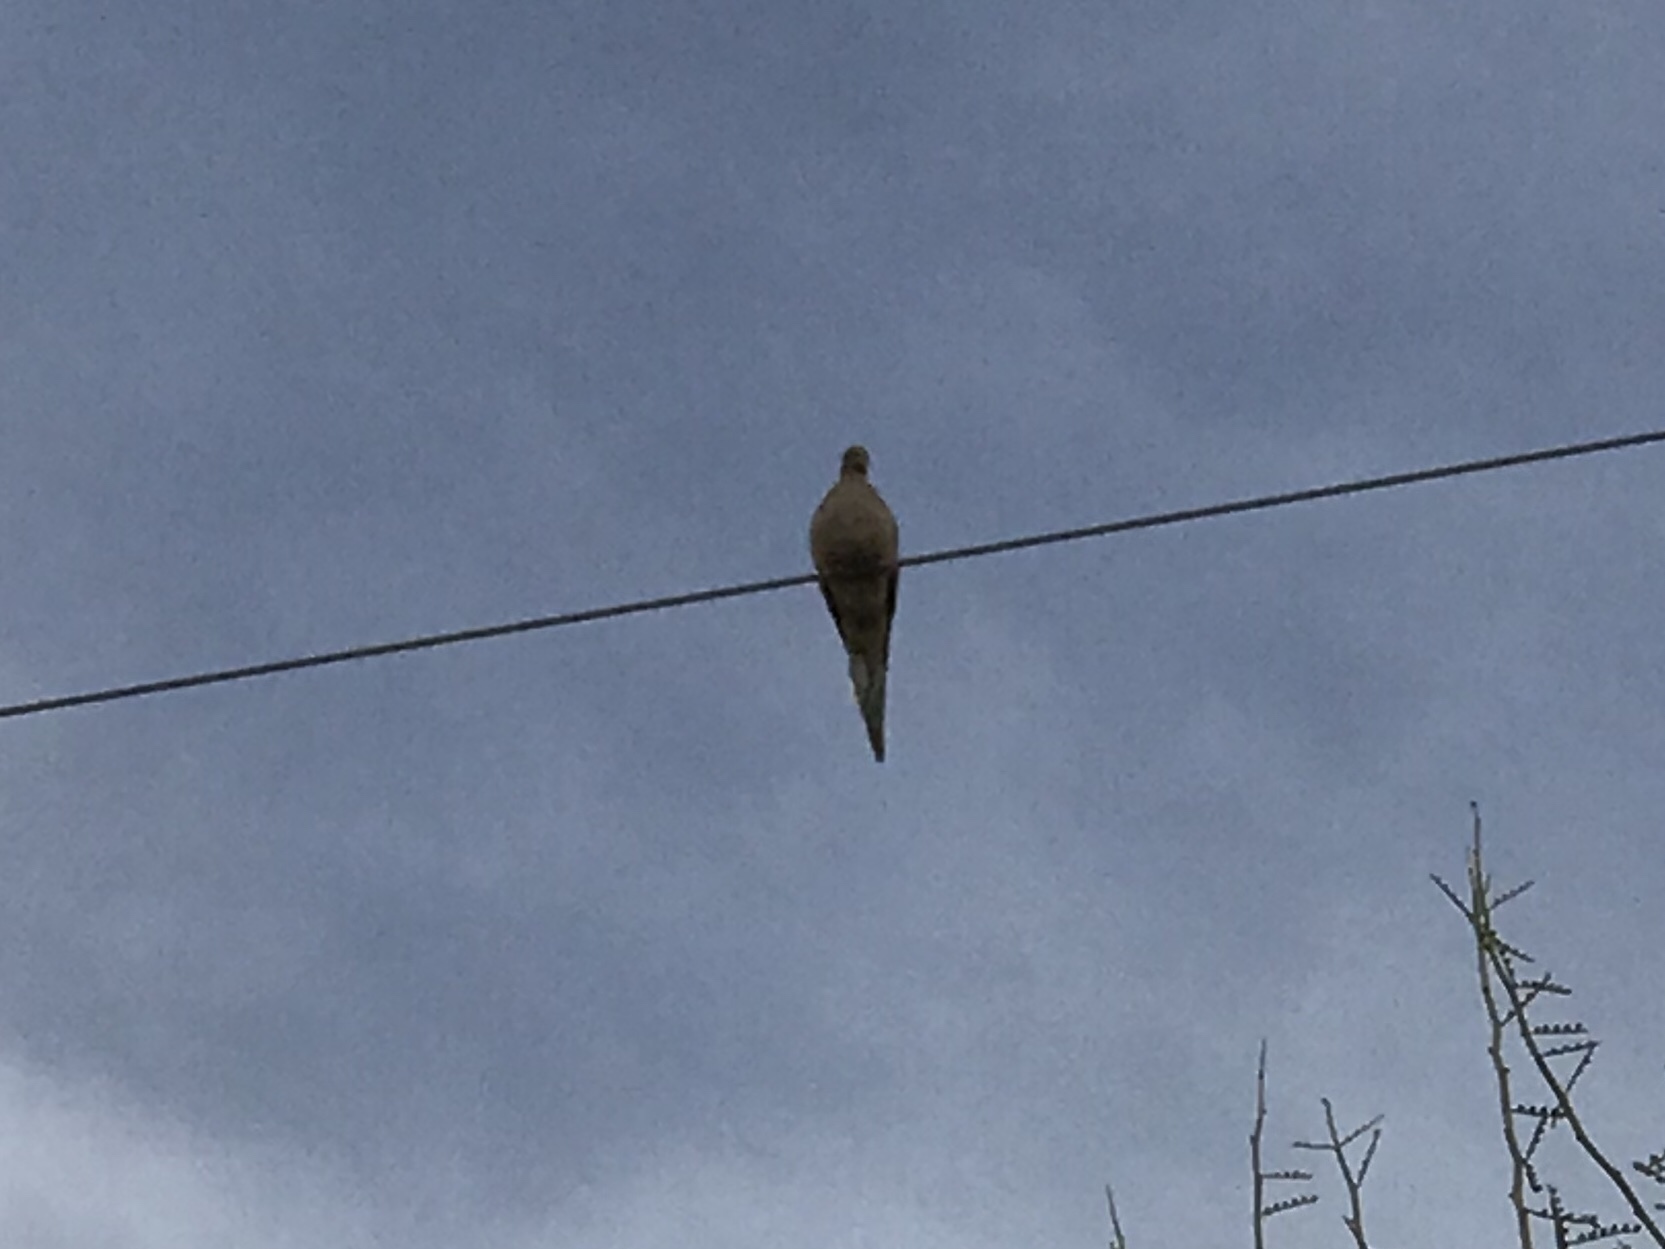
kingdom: Animalia
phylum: Chordata
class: Aves
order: Columbiformes
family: Columbidae
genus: Zenaida
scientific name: Zenaida macroura
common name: Mourning dove
